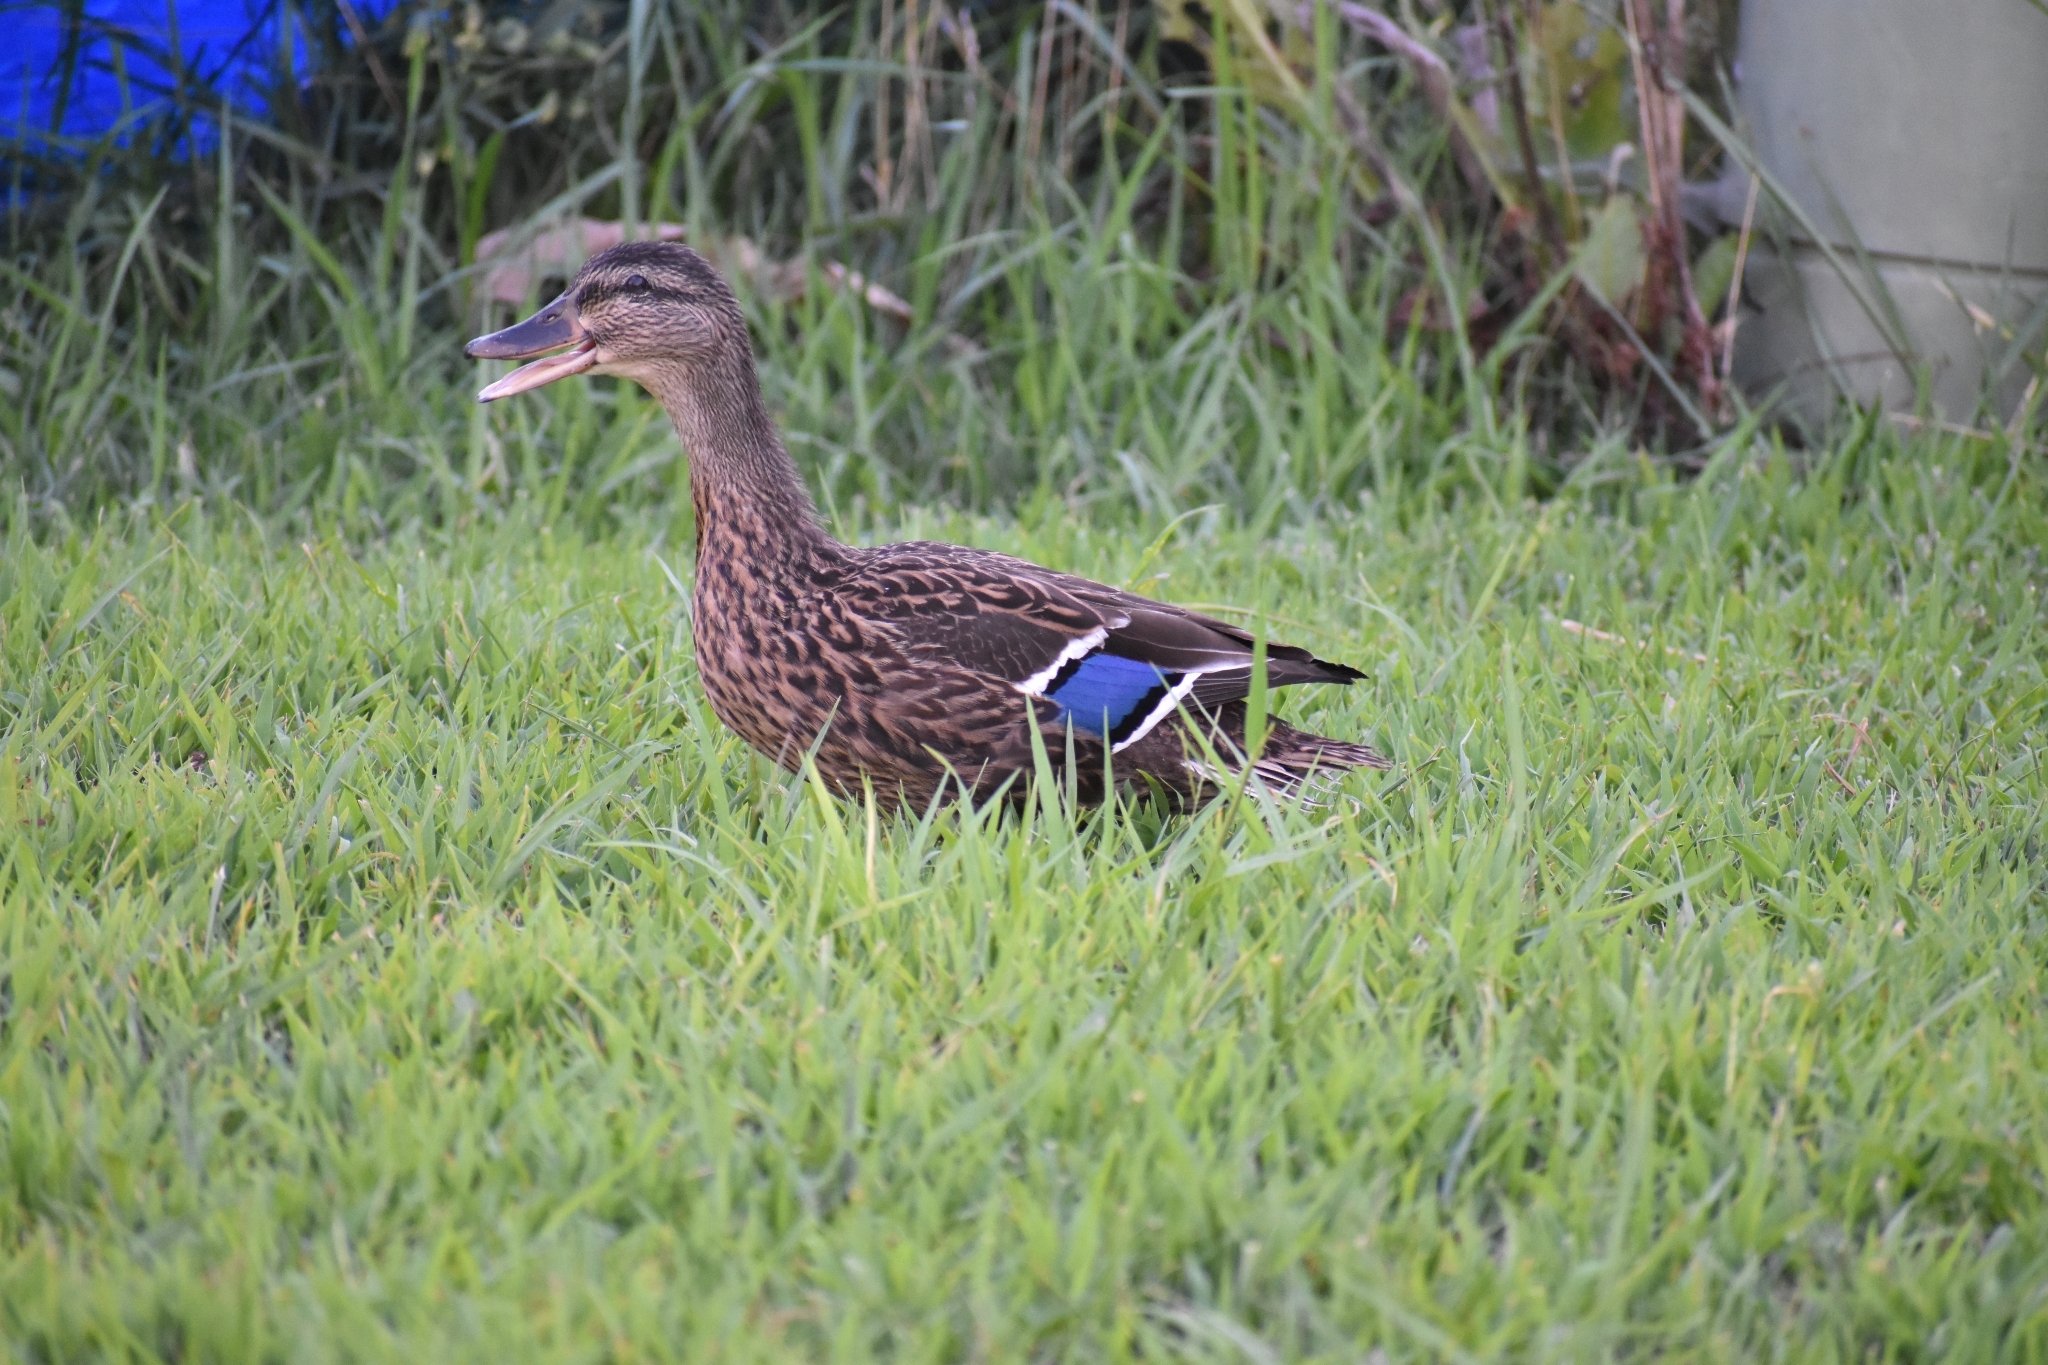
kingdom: Animalia
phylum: Chordata
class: Aves
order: Anseriformes
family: Anatidae
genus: Anas
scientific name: Anas platyrhynchos
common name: Mallard
